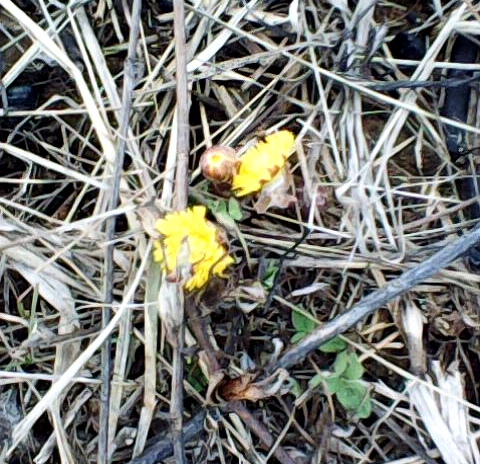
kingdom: Plantae
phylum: Tracheophyta
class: Magnoliopsida
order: Asterales
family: Asteraceae
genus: Tussilago
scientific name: Tussilago farfara
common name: Coltsfoot
